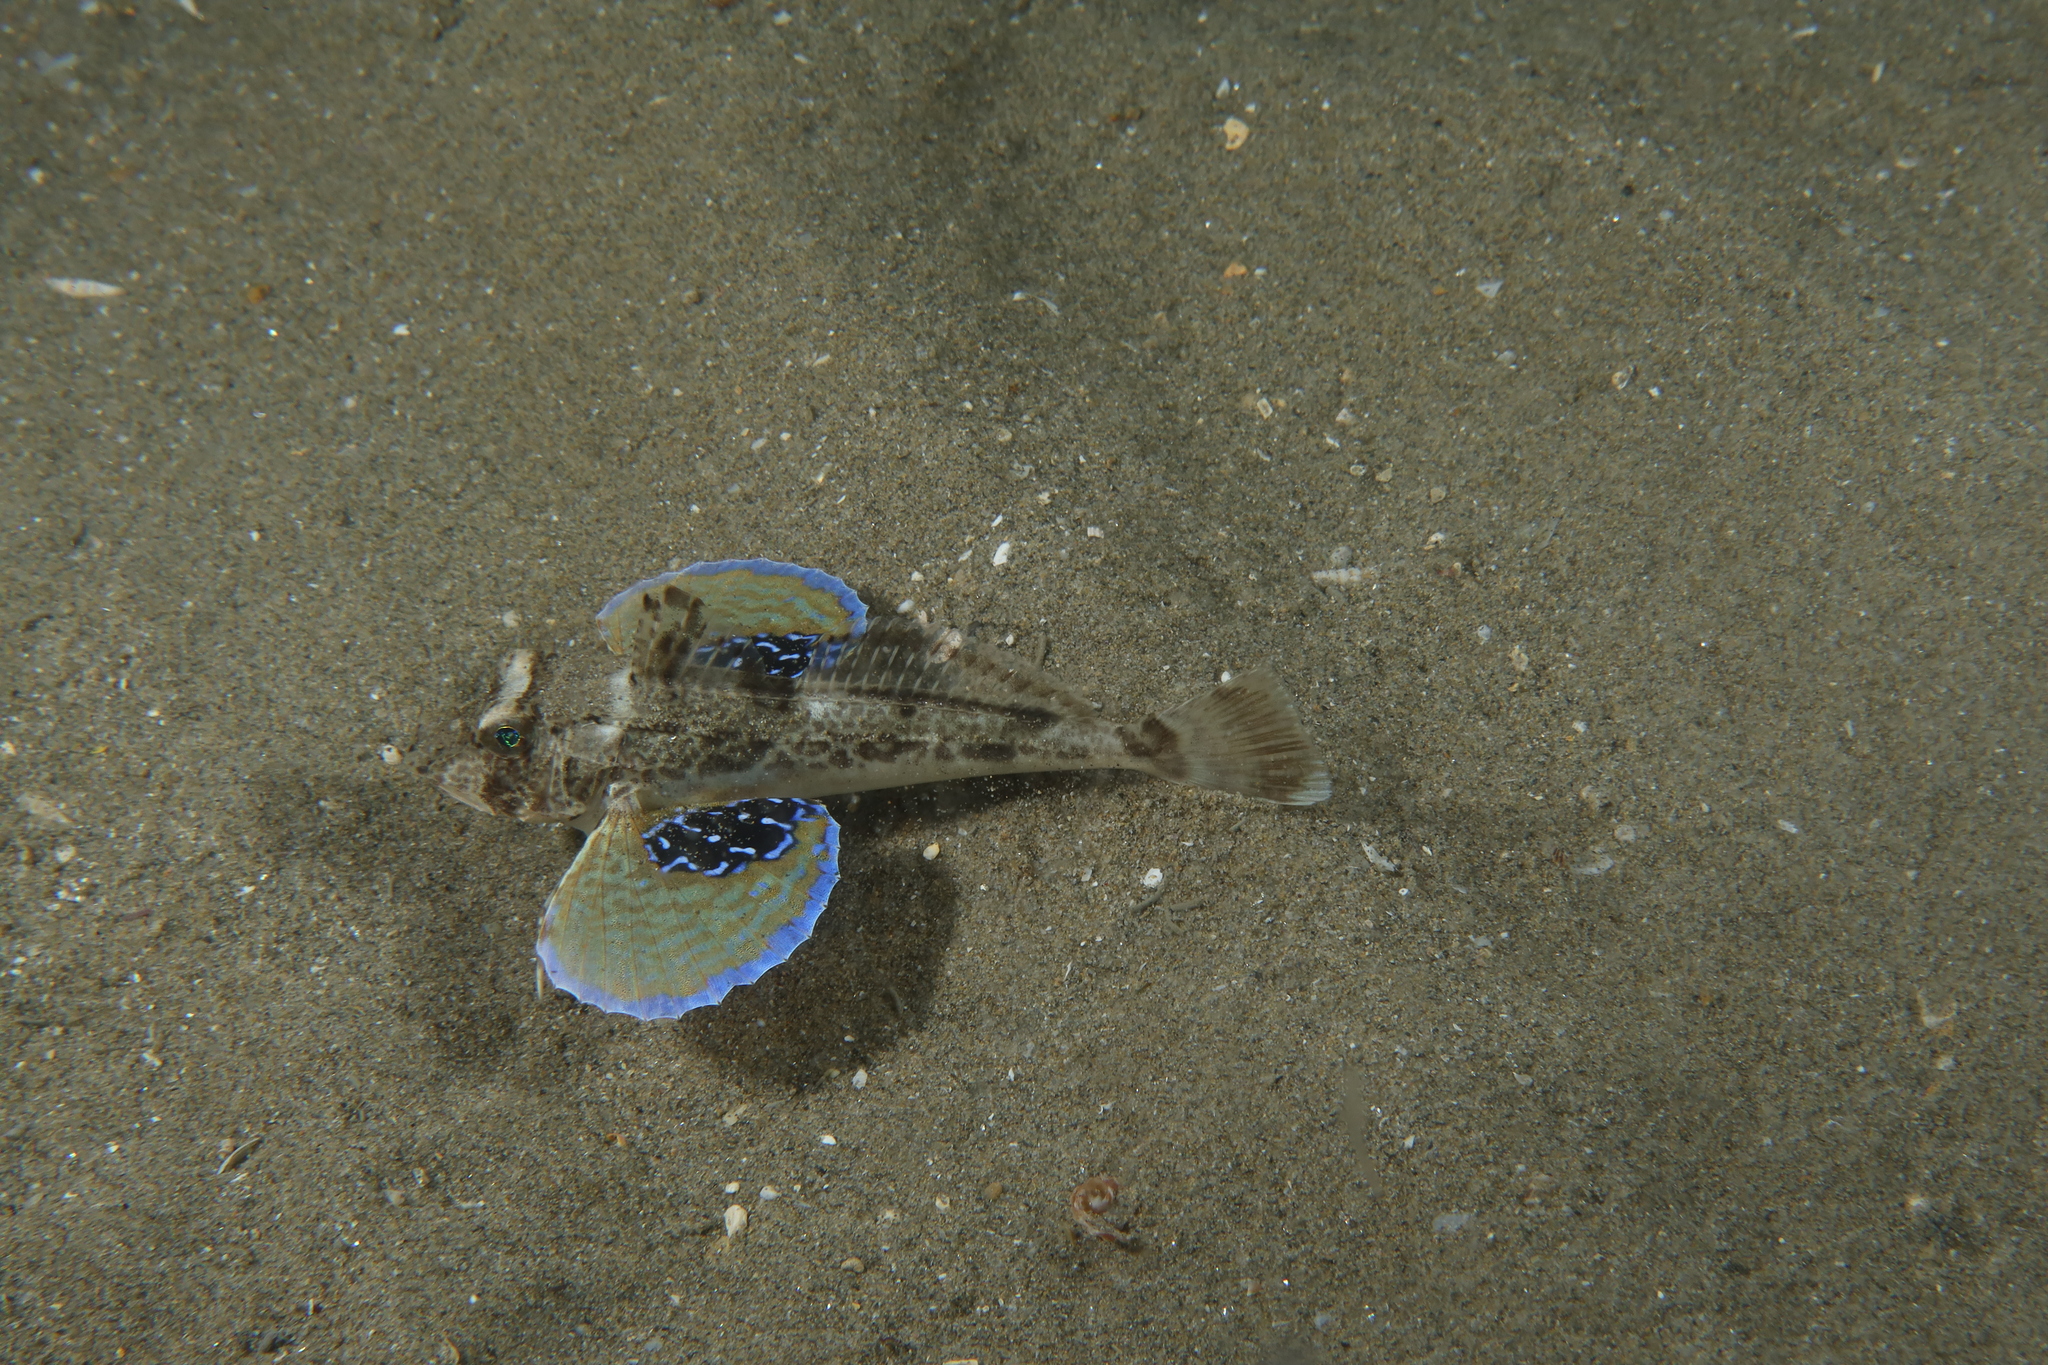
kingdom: Animalia
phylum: Chordata
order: Scorpaeniformes
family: Triglidae
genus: Chelidonichthys
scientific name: Chelidonichthys lucerna
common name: Tub gurnard
